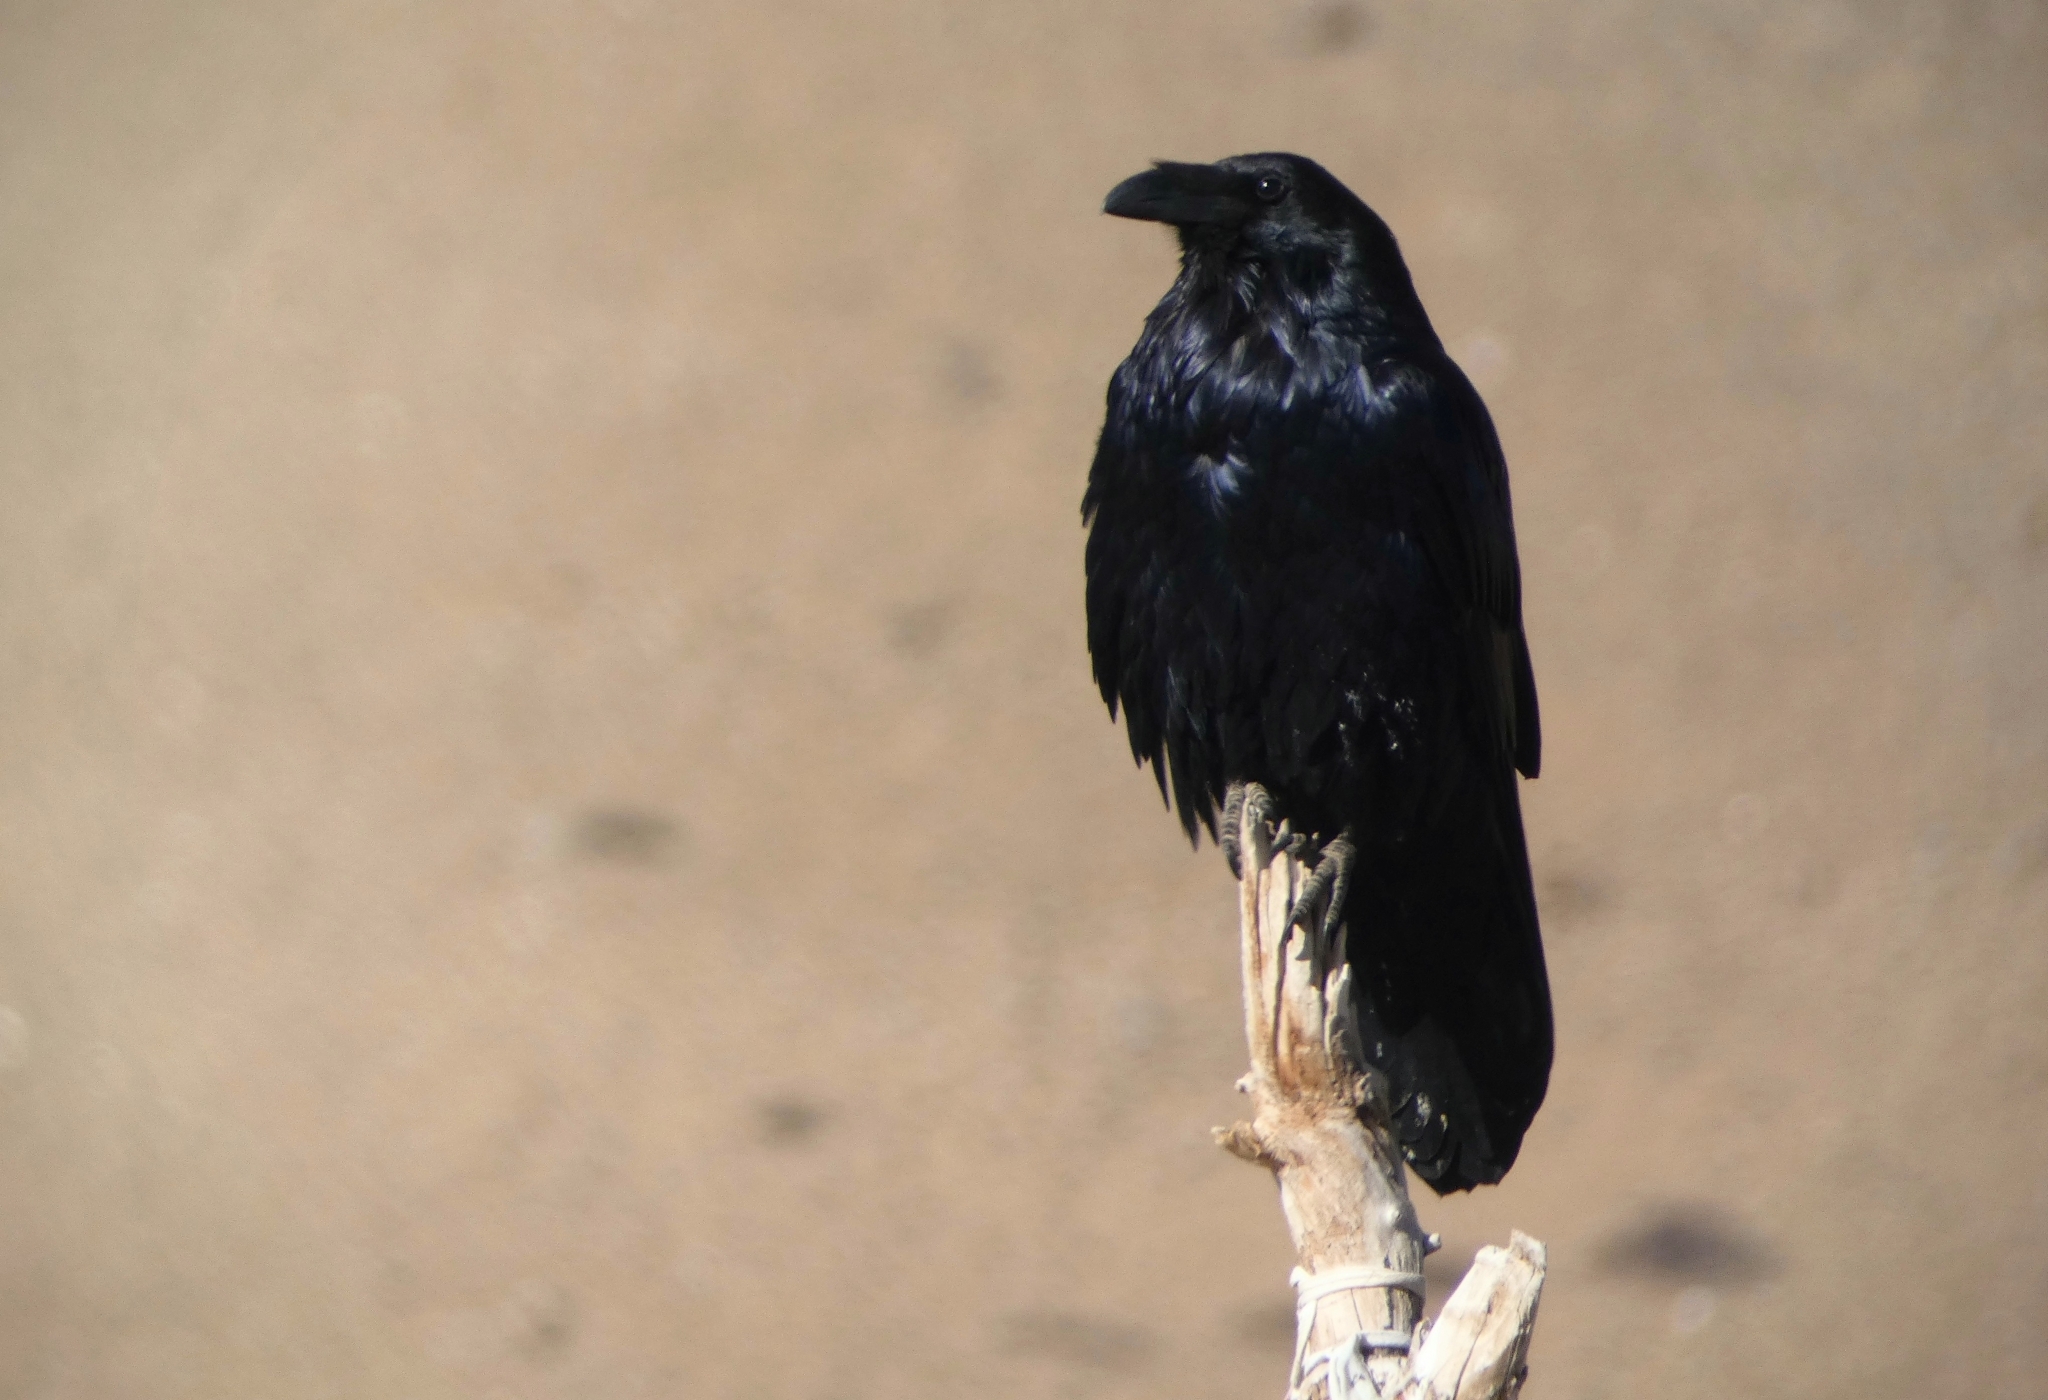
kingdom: Animalia
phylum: Chordata
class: Aves
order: Passeriformes
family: Corvidae
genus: Corvus
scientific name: Corvus corax
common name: Common raven
